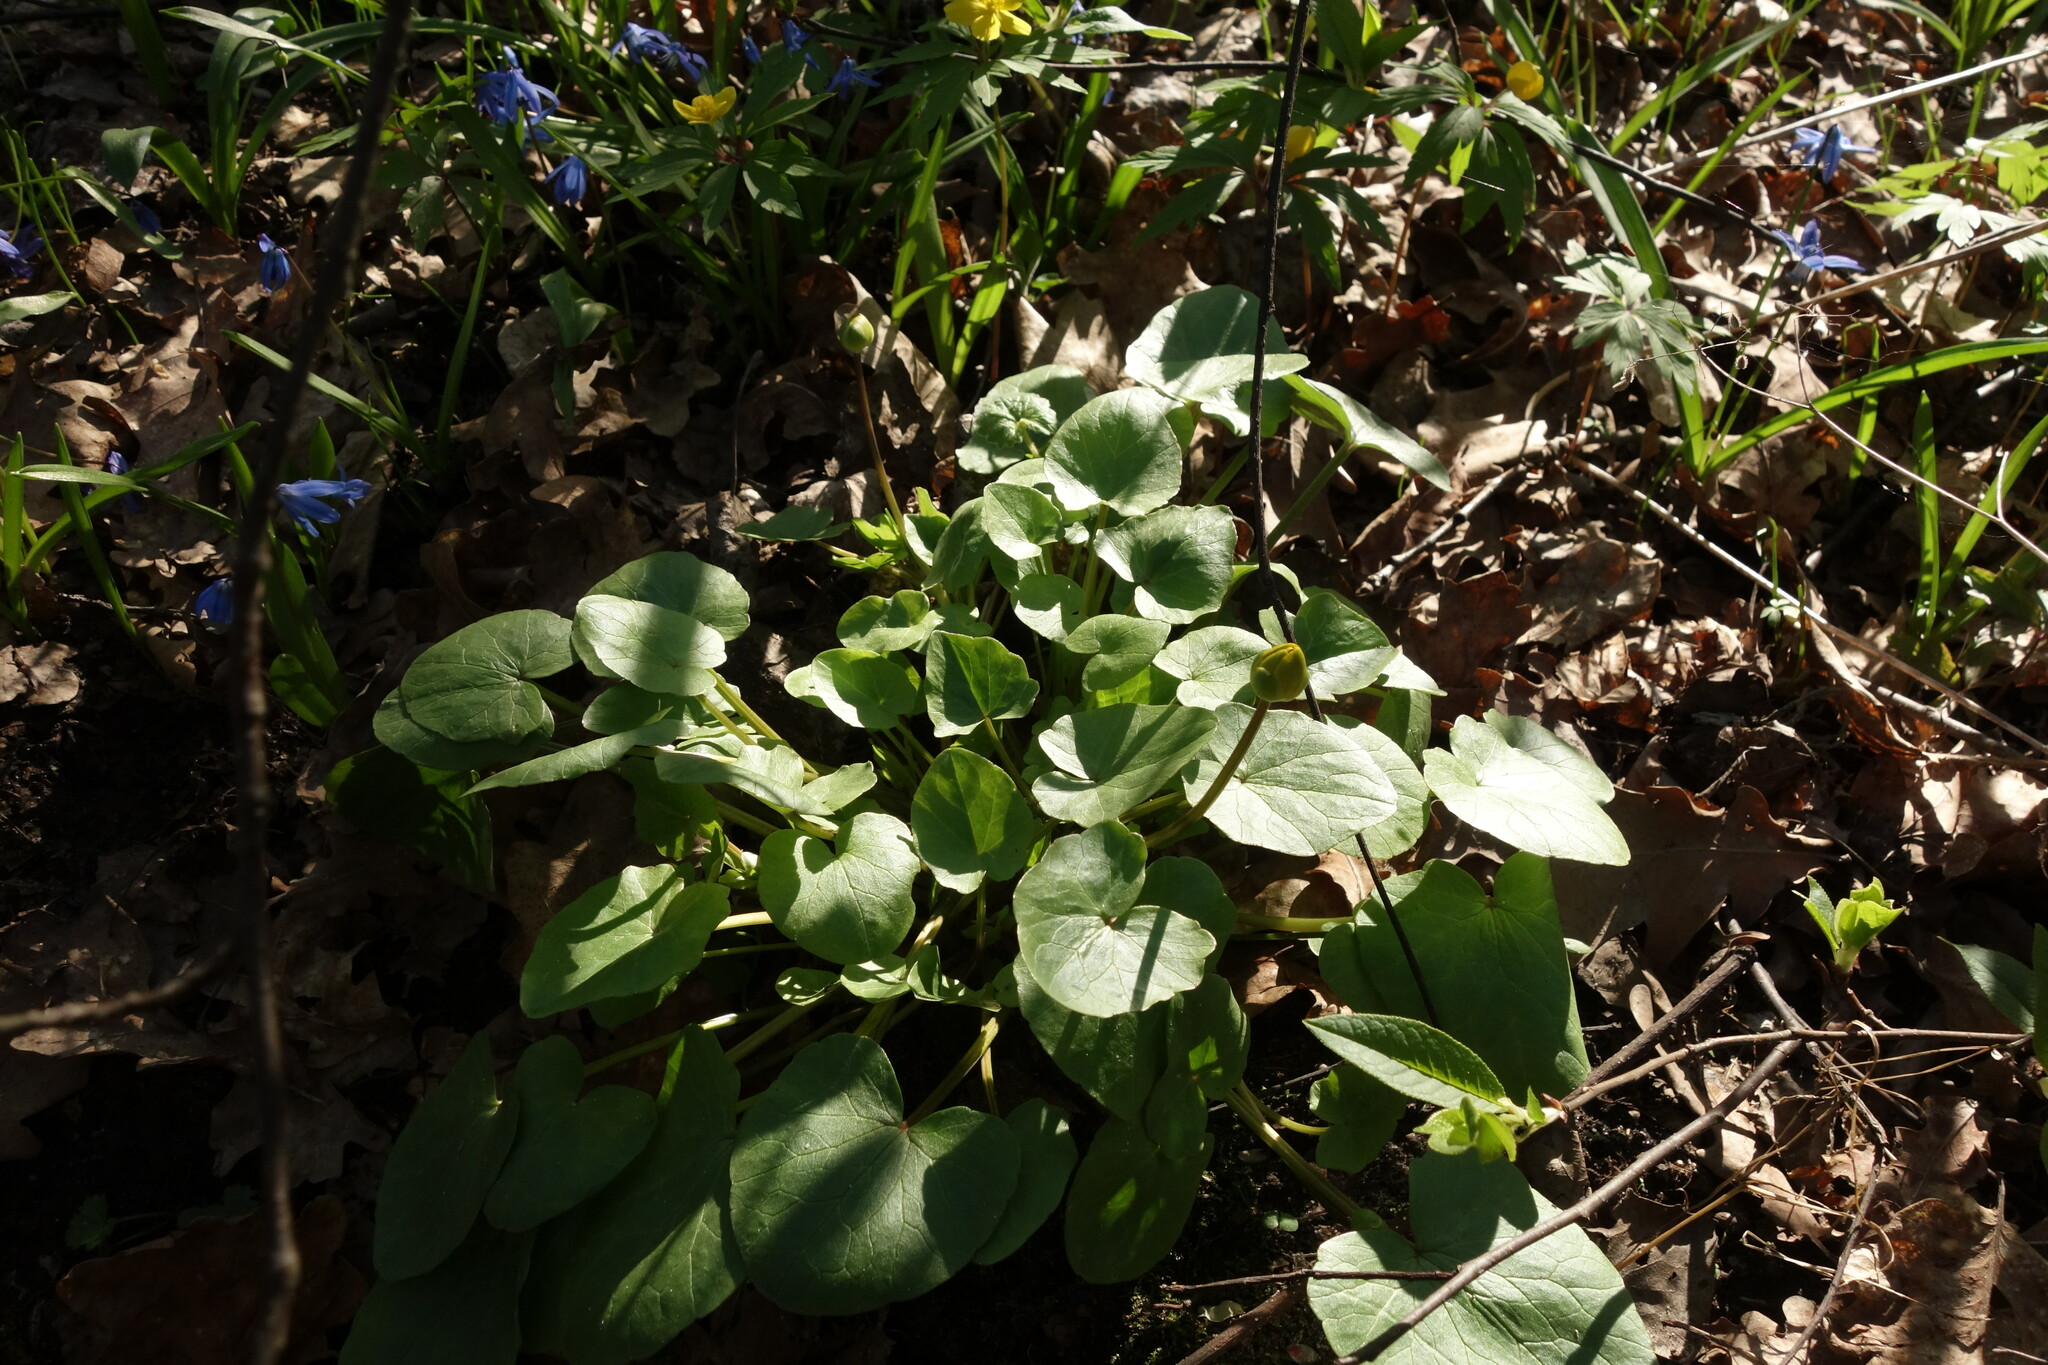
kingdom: Plantae
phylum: Tracheophyta
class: Magnoliopsida
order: Ranunculales
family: Ranunculaceae
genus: Ficaria
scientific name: Ficaria verna
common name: Lesser celandine
